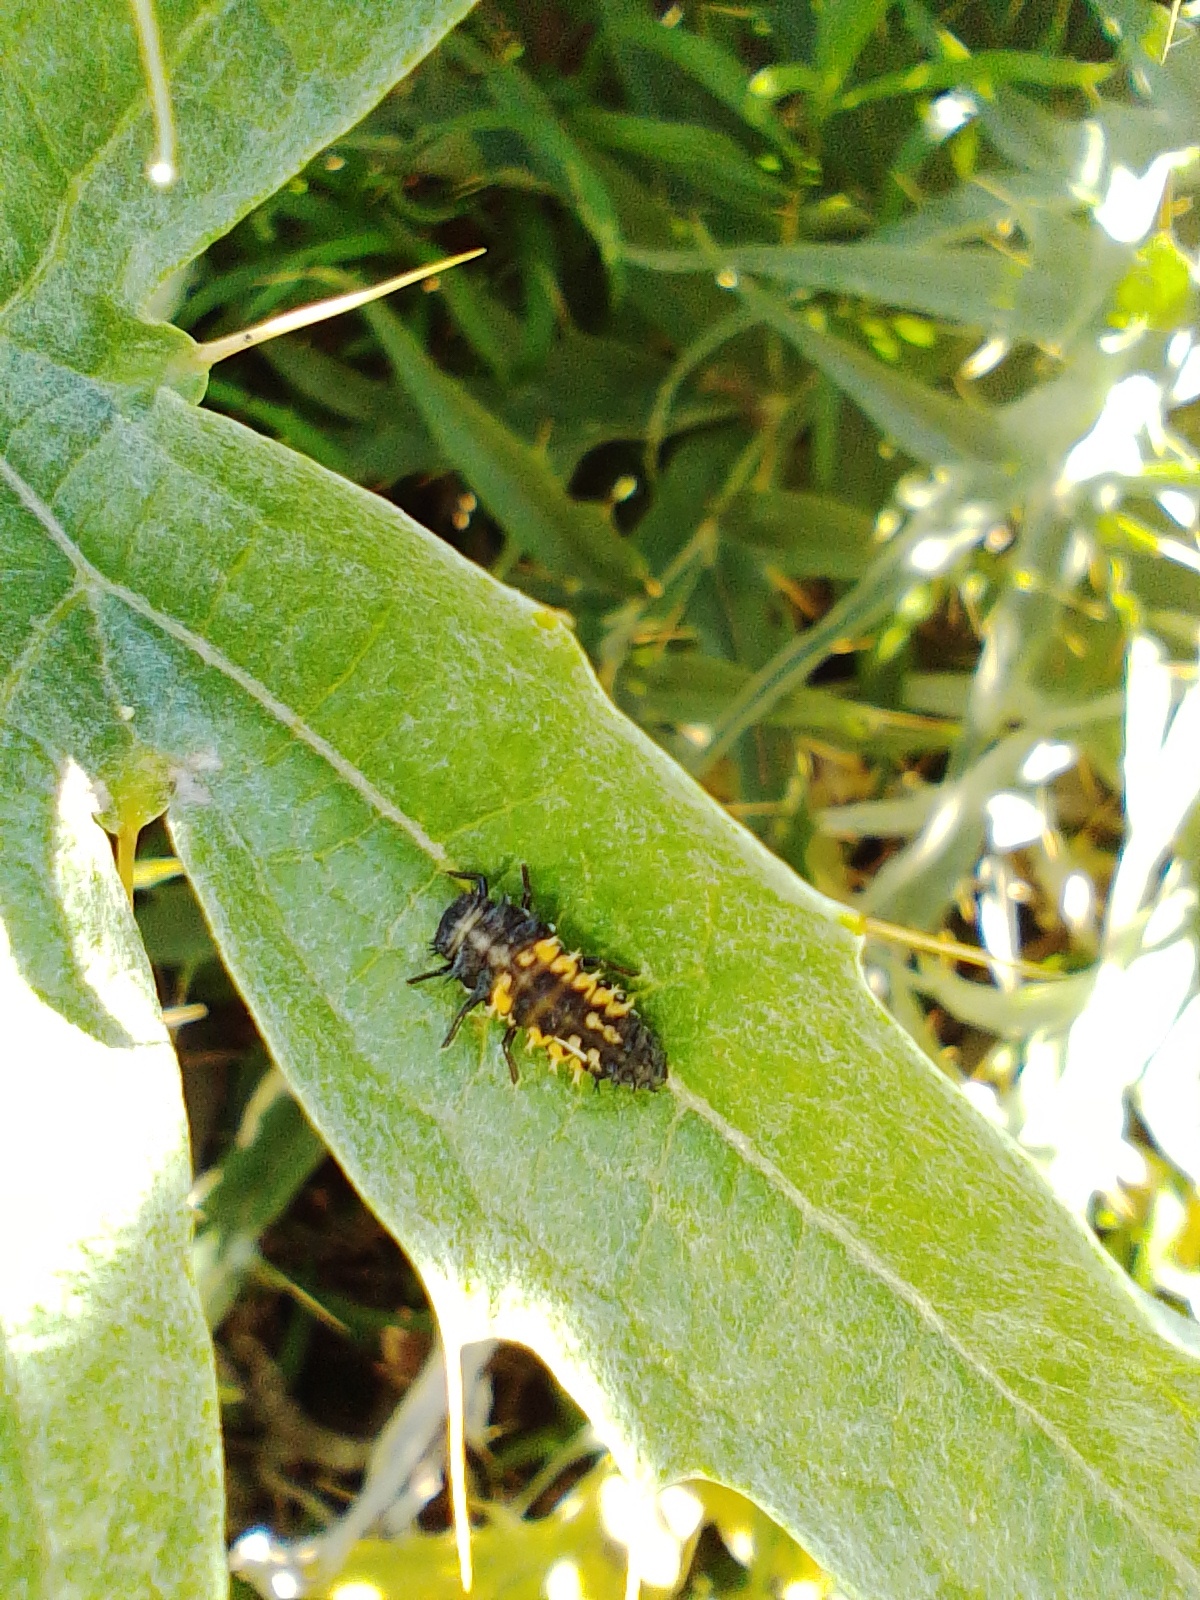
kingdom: Animalia
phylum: Arthropoda
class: Insecta
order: Coleoptera
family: Coccinellidae
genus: Harmonia
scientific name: Harmonia axyridis
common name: Harlequin ladybird
